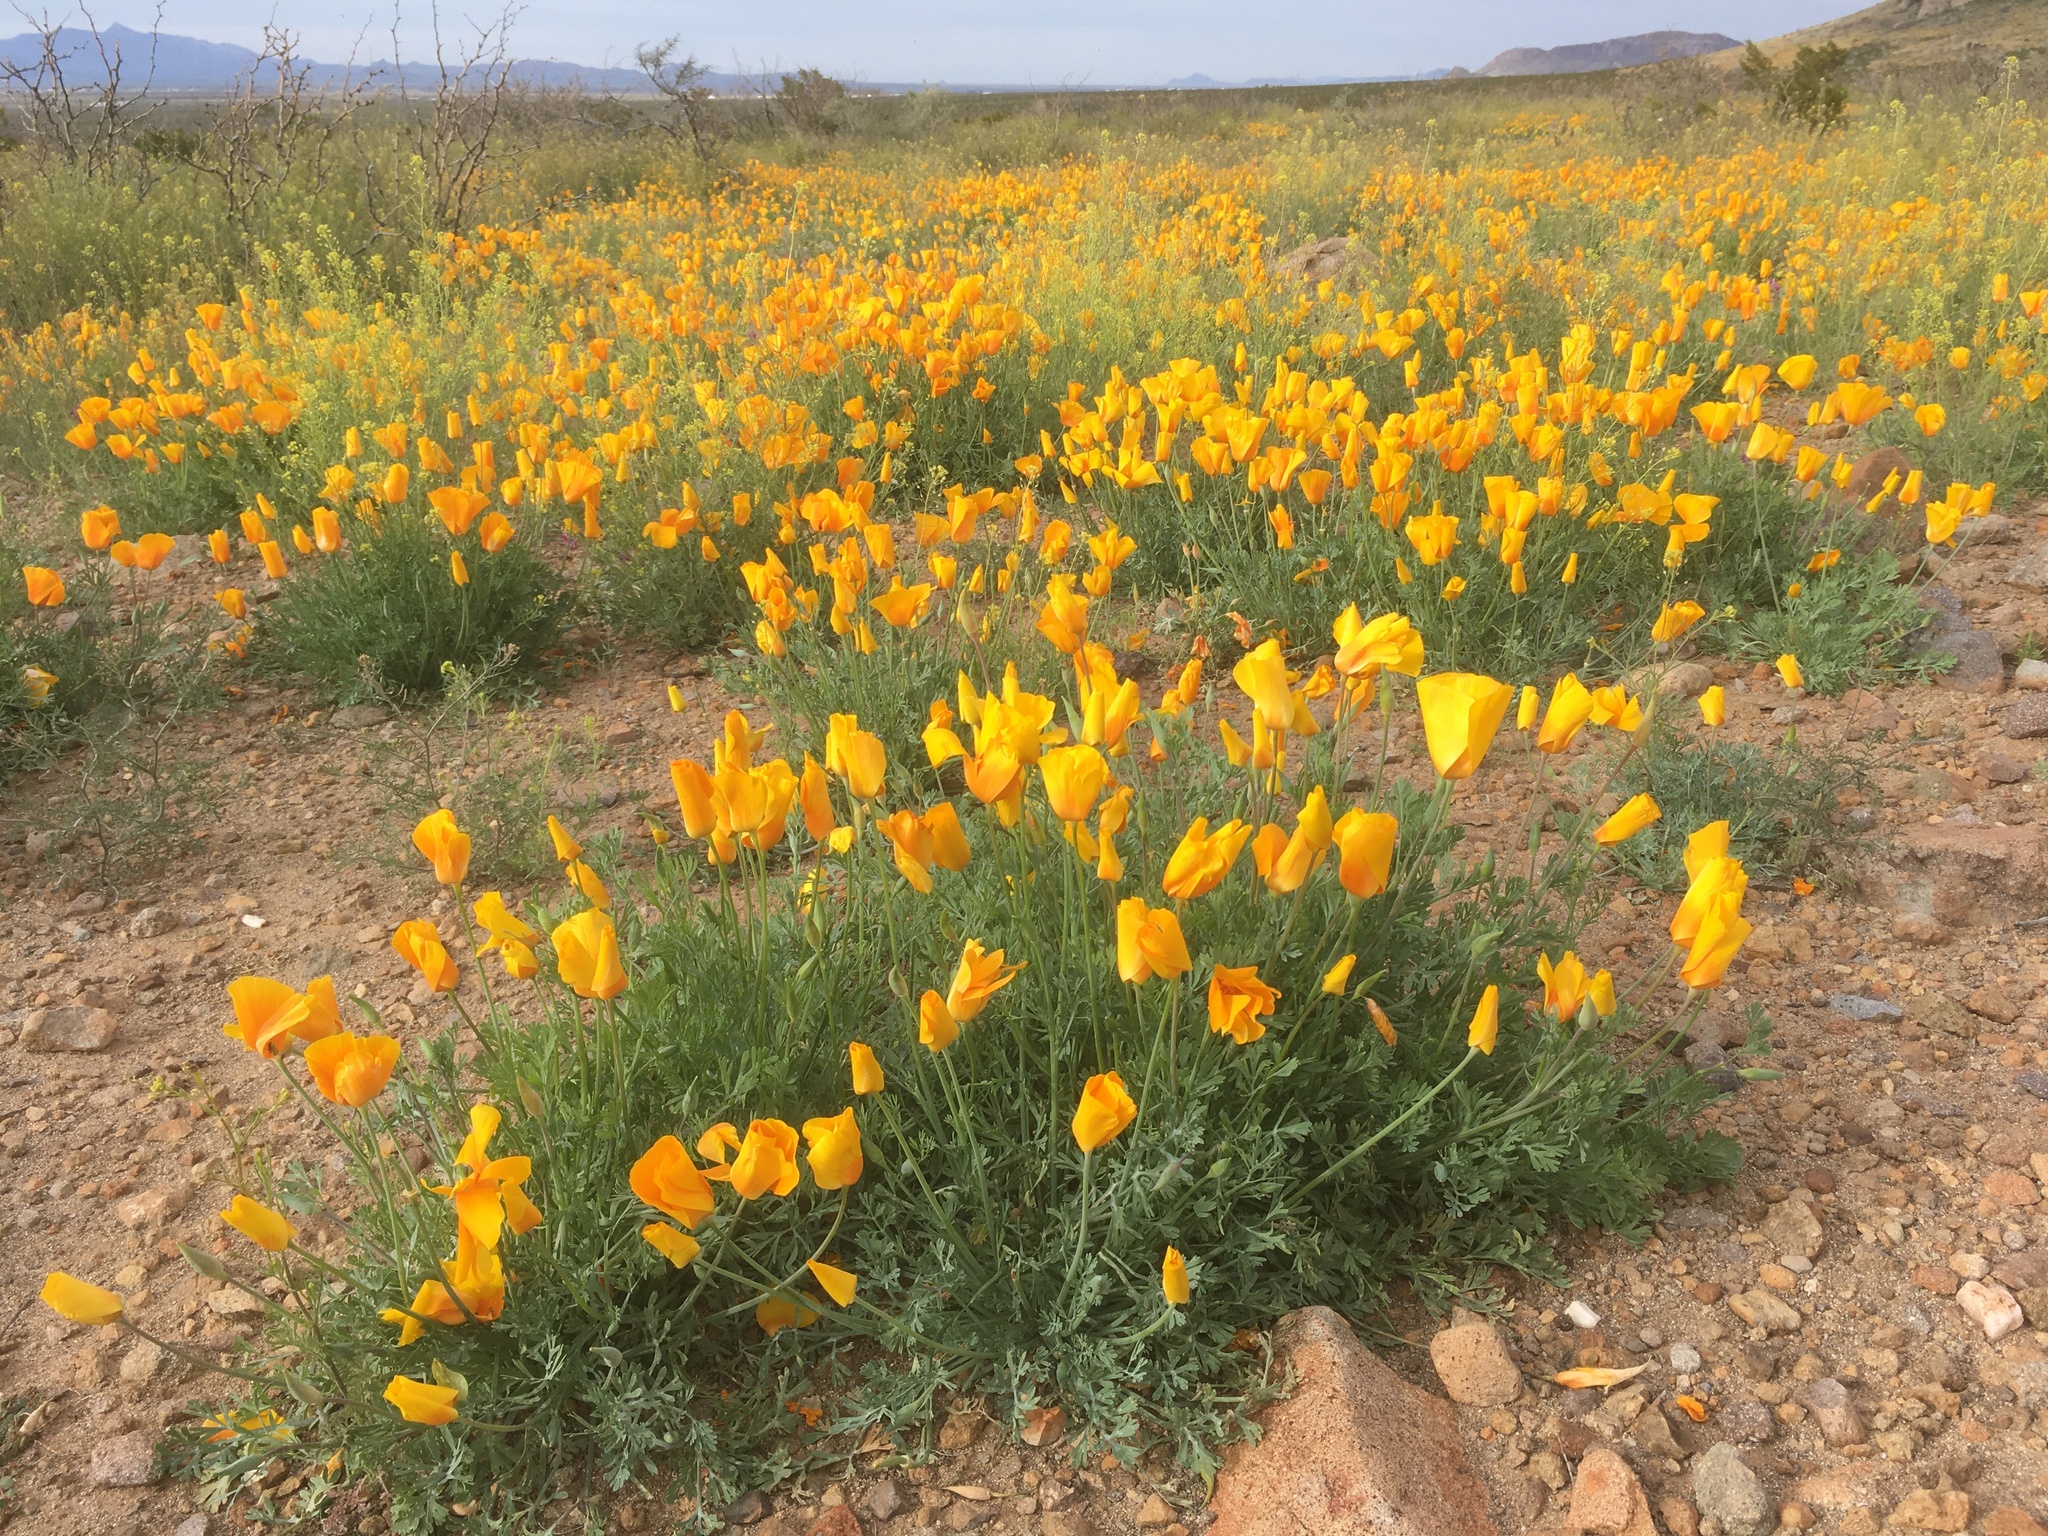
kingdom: Plantae
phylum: Tracheophyta
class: Magnoliopsida
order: Ranunculales
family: Papaveraceae
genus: Eschscholzia
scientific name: Eschscholzia californica
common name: California poppy
